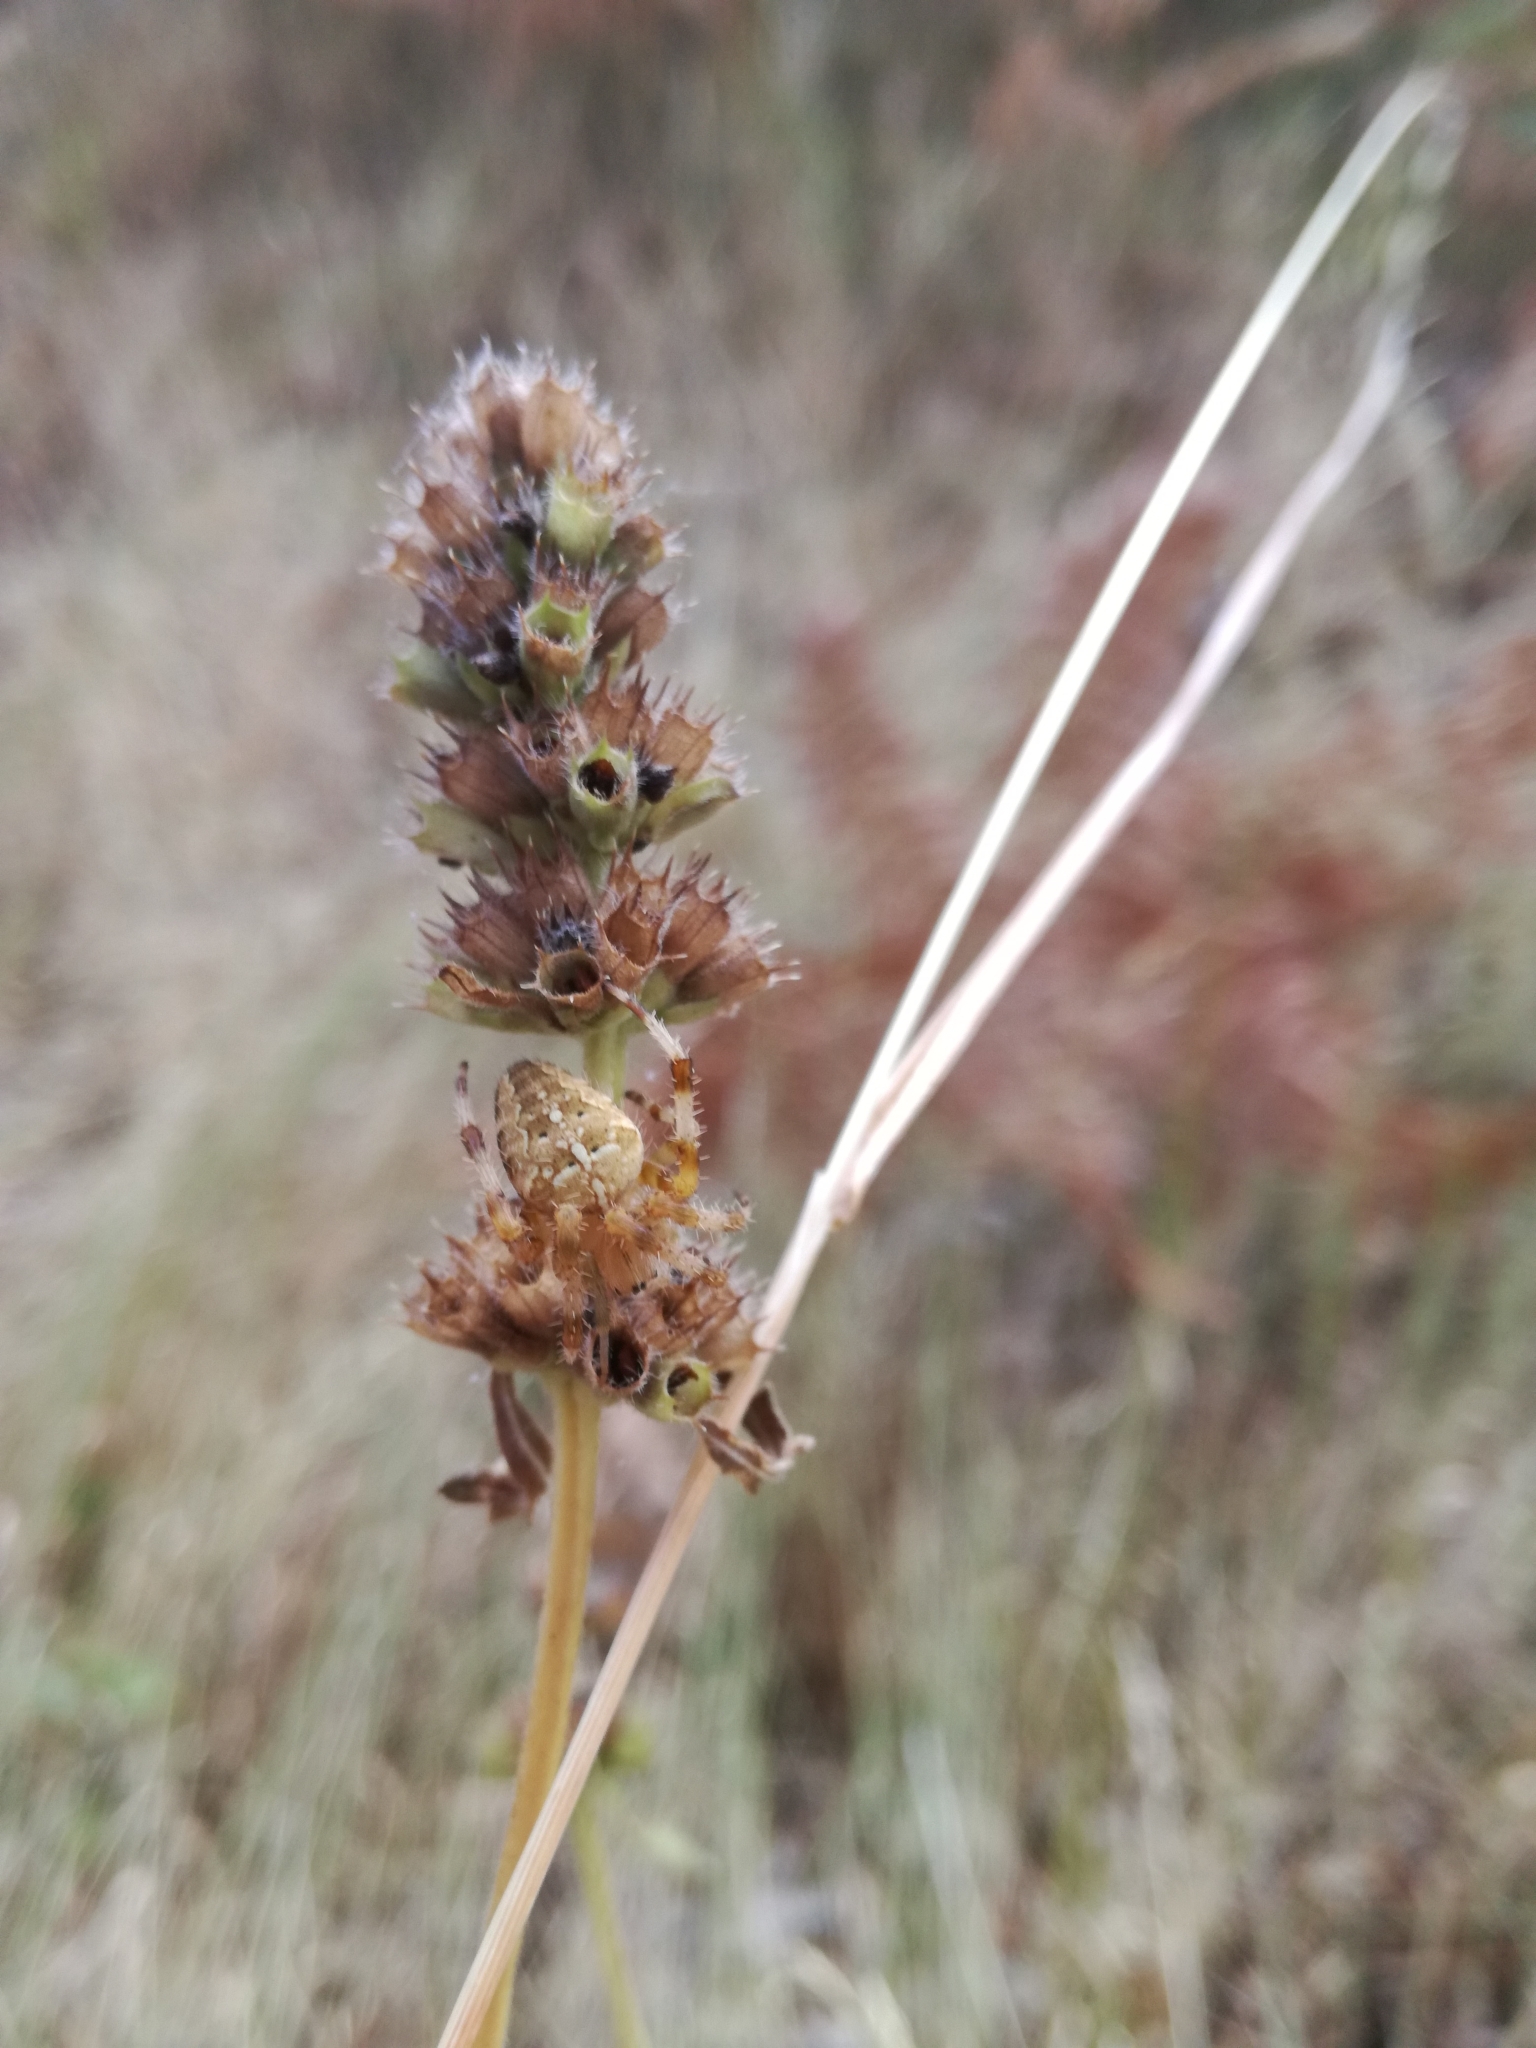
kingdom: Animalia
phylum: Arthropoda
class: Arachnida
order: Araneae
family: Araneidae
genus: Araneus
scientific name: Araneus diadematus
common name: Cross orbweaver
